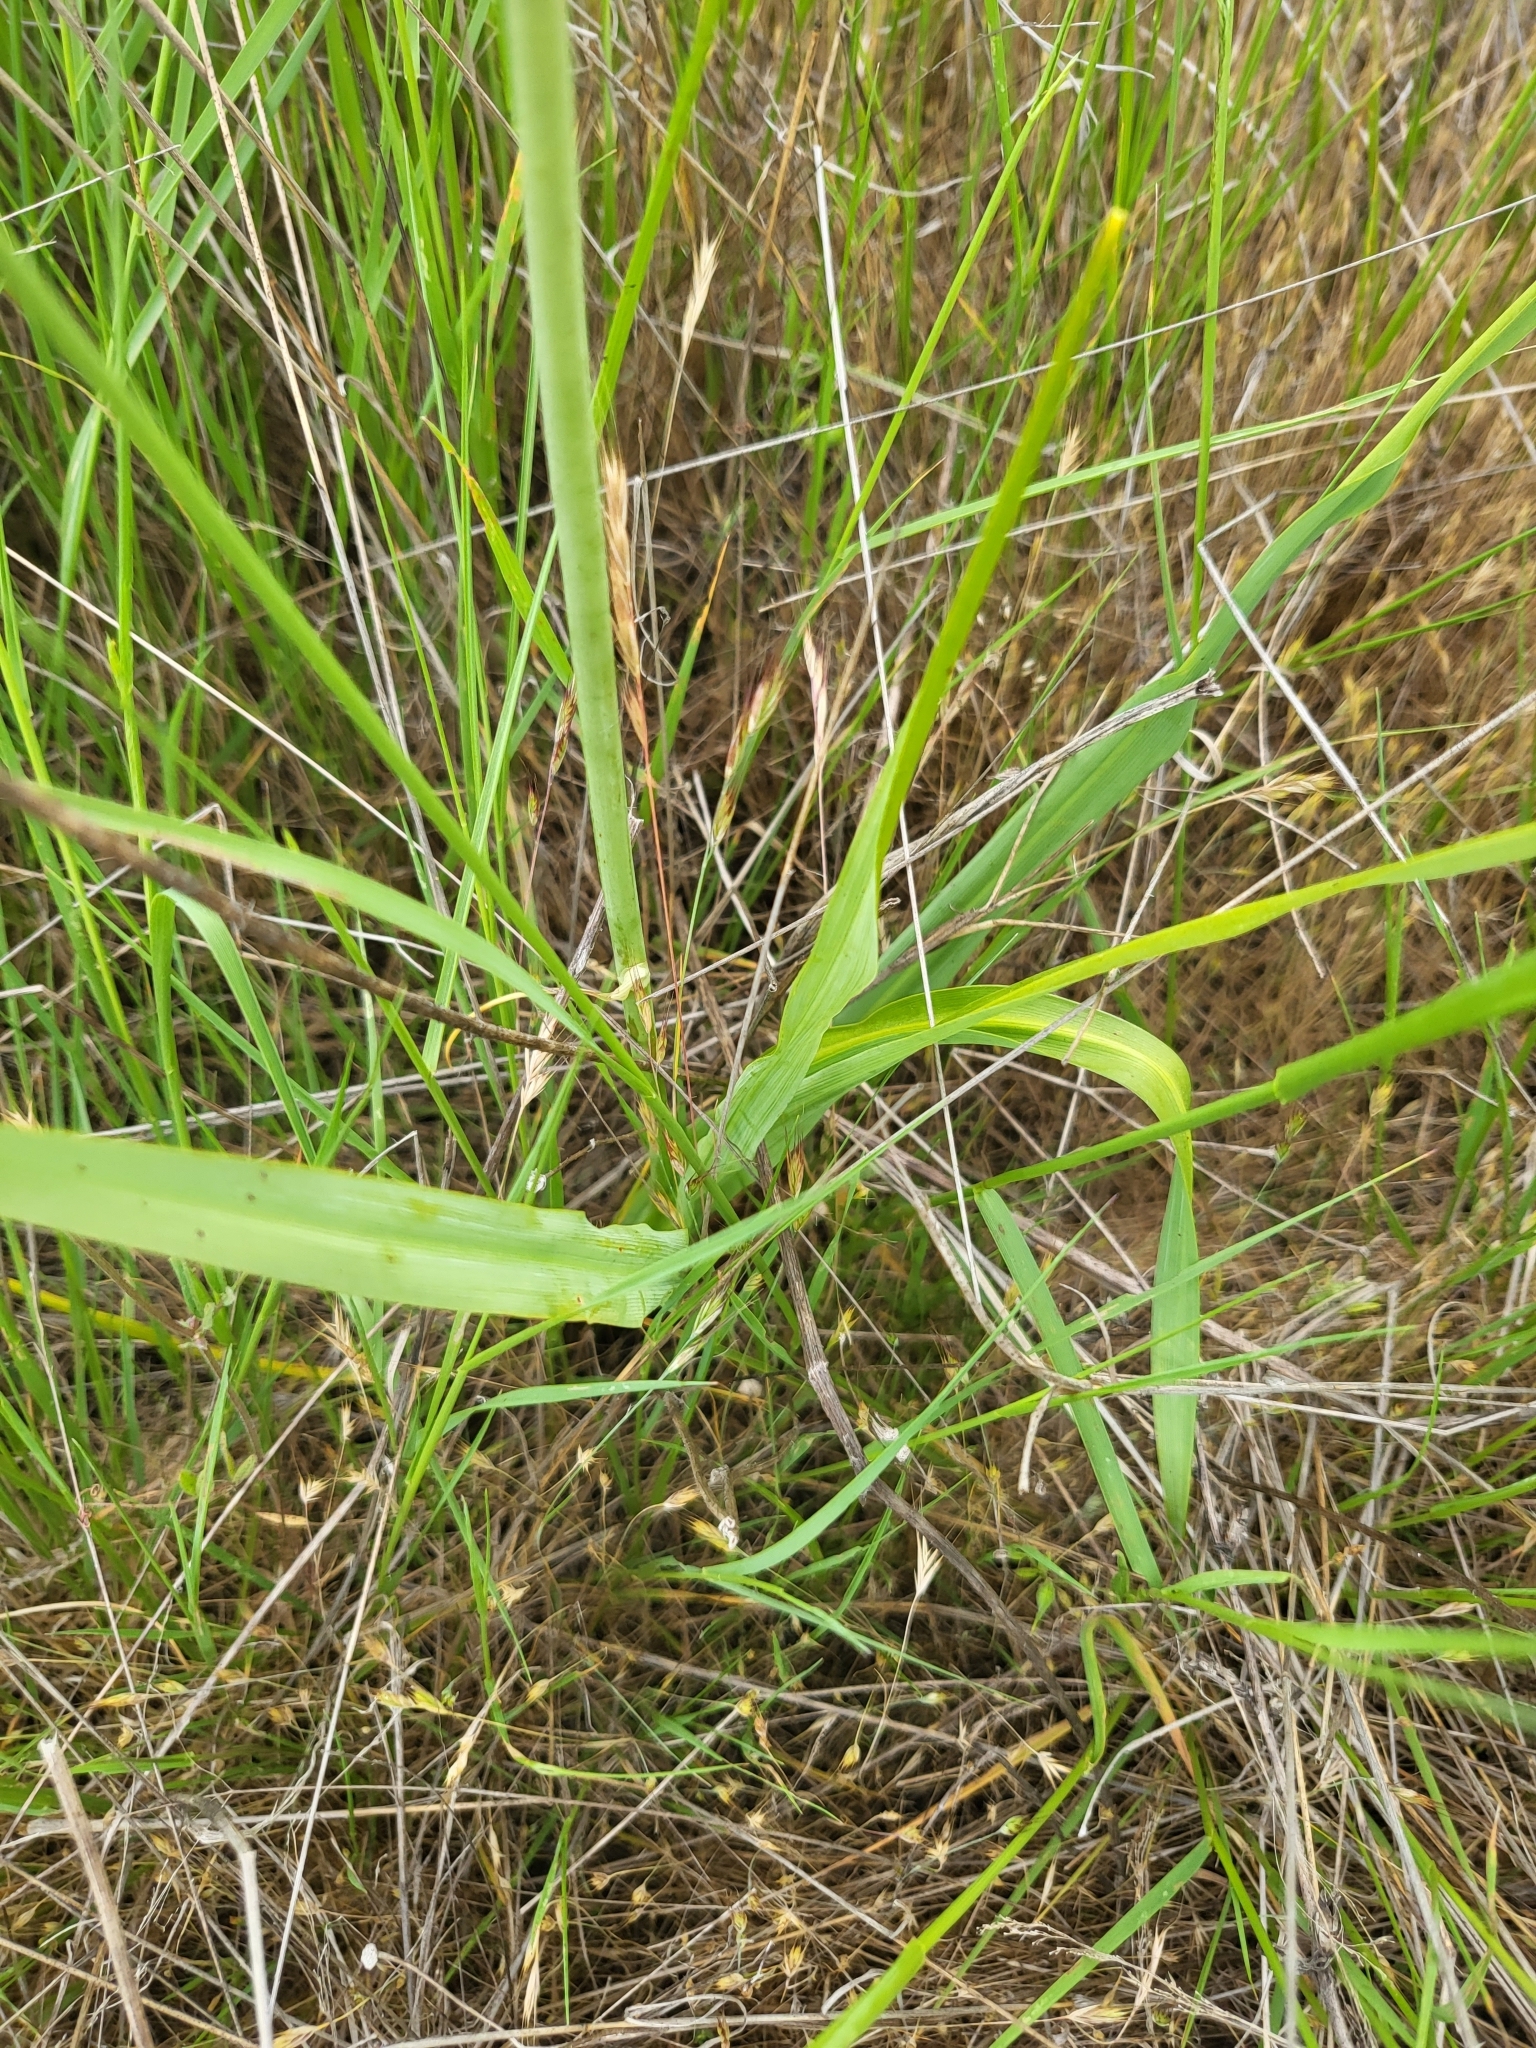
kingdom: Plantae
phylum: Tracheophyta
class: Liliopsida
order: Asparagales
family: Asparagaceae
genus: Camassia
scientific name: Camassia leichtlinii
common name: Leichtlin's camas
